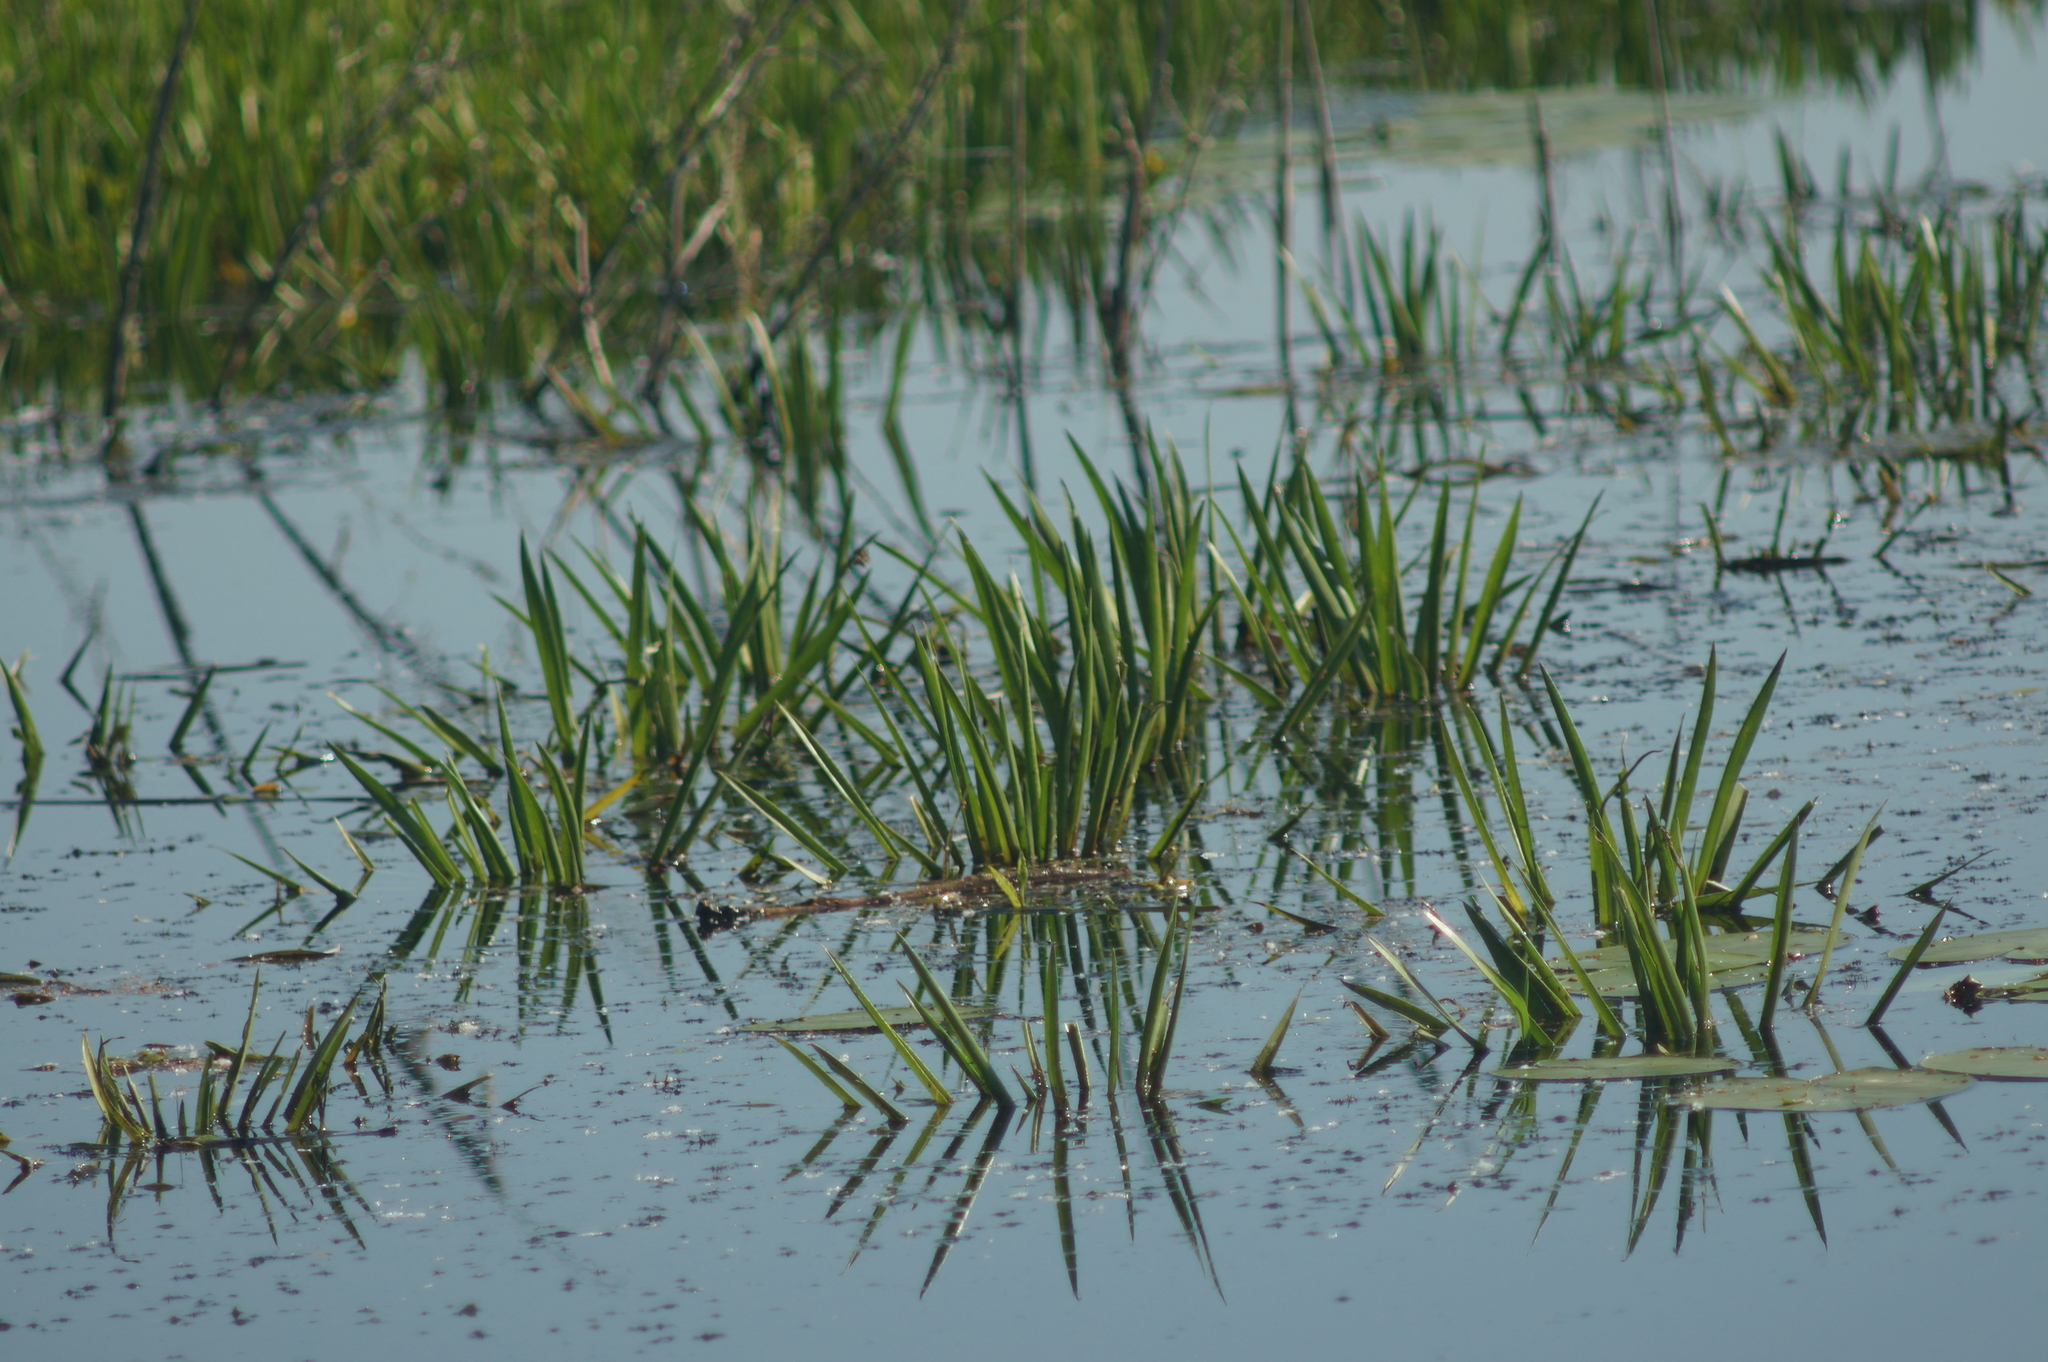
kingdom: Plantae
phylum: Tracheophyta
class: Liliopsida
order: Alismatales
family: Hydrocharitaceae
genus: Stratiotes
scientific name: Stratiotes aloides
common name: Water-soldier
